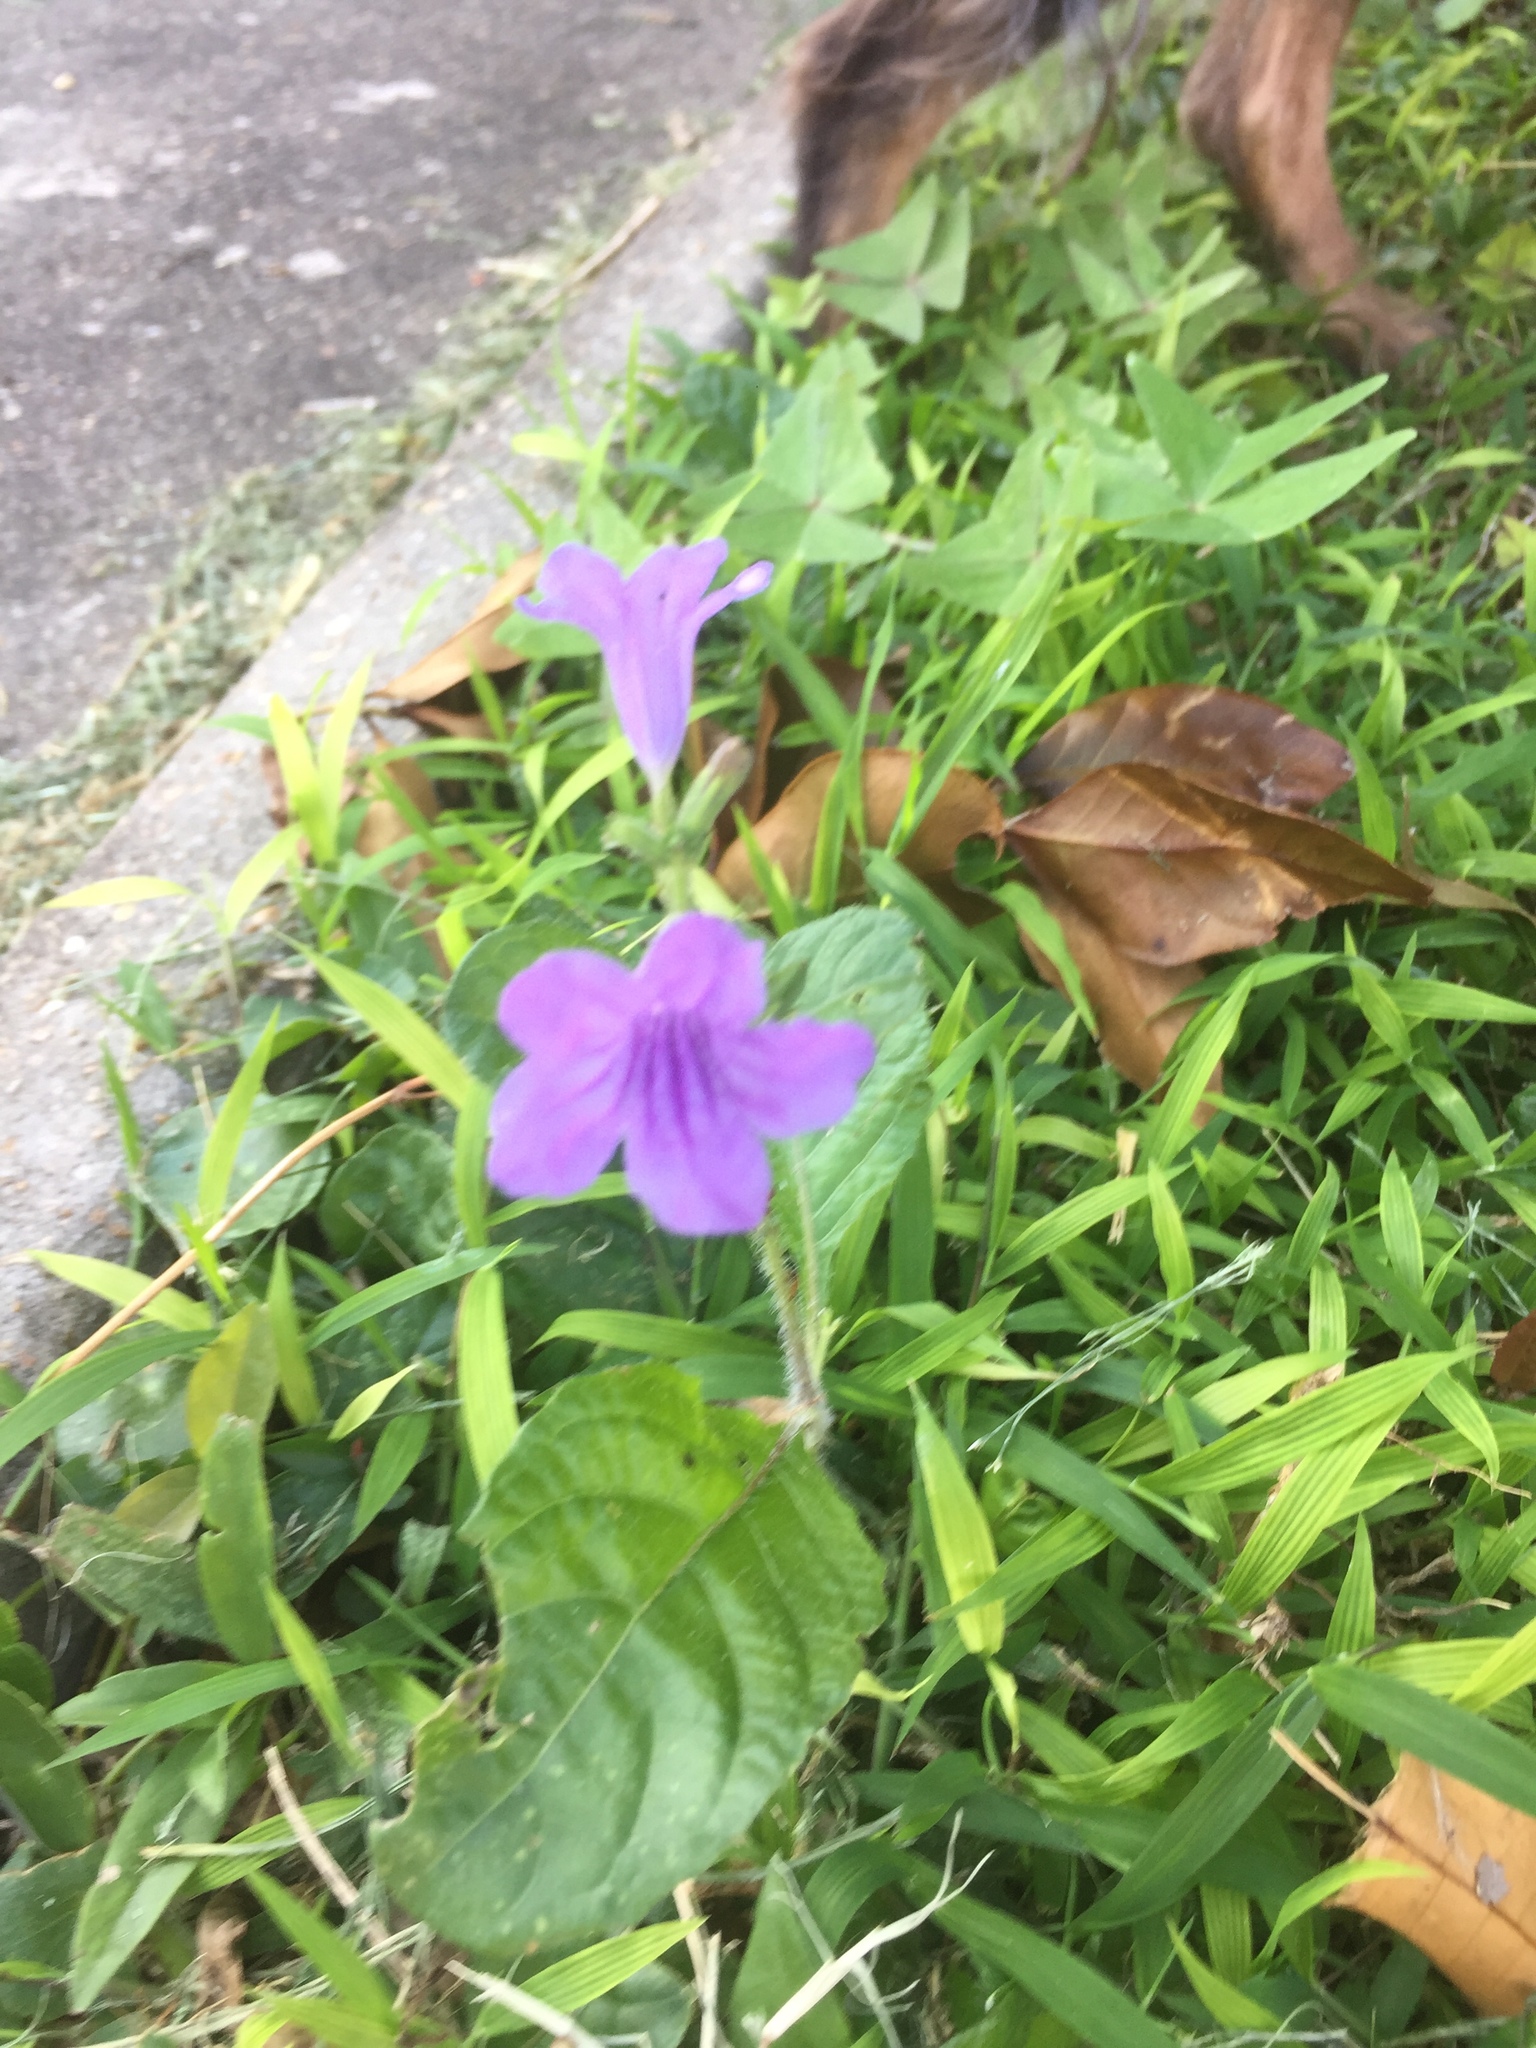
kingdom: Plantae
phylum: Tracheophyta
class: Magnoliopsida
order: Lamiales
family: Acanthaceae
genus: Ruellia
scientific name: Ruellia ciliatiflora
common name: Hairyflower wild petunia
